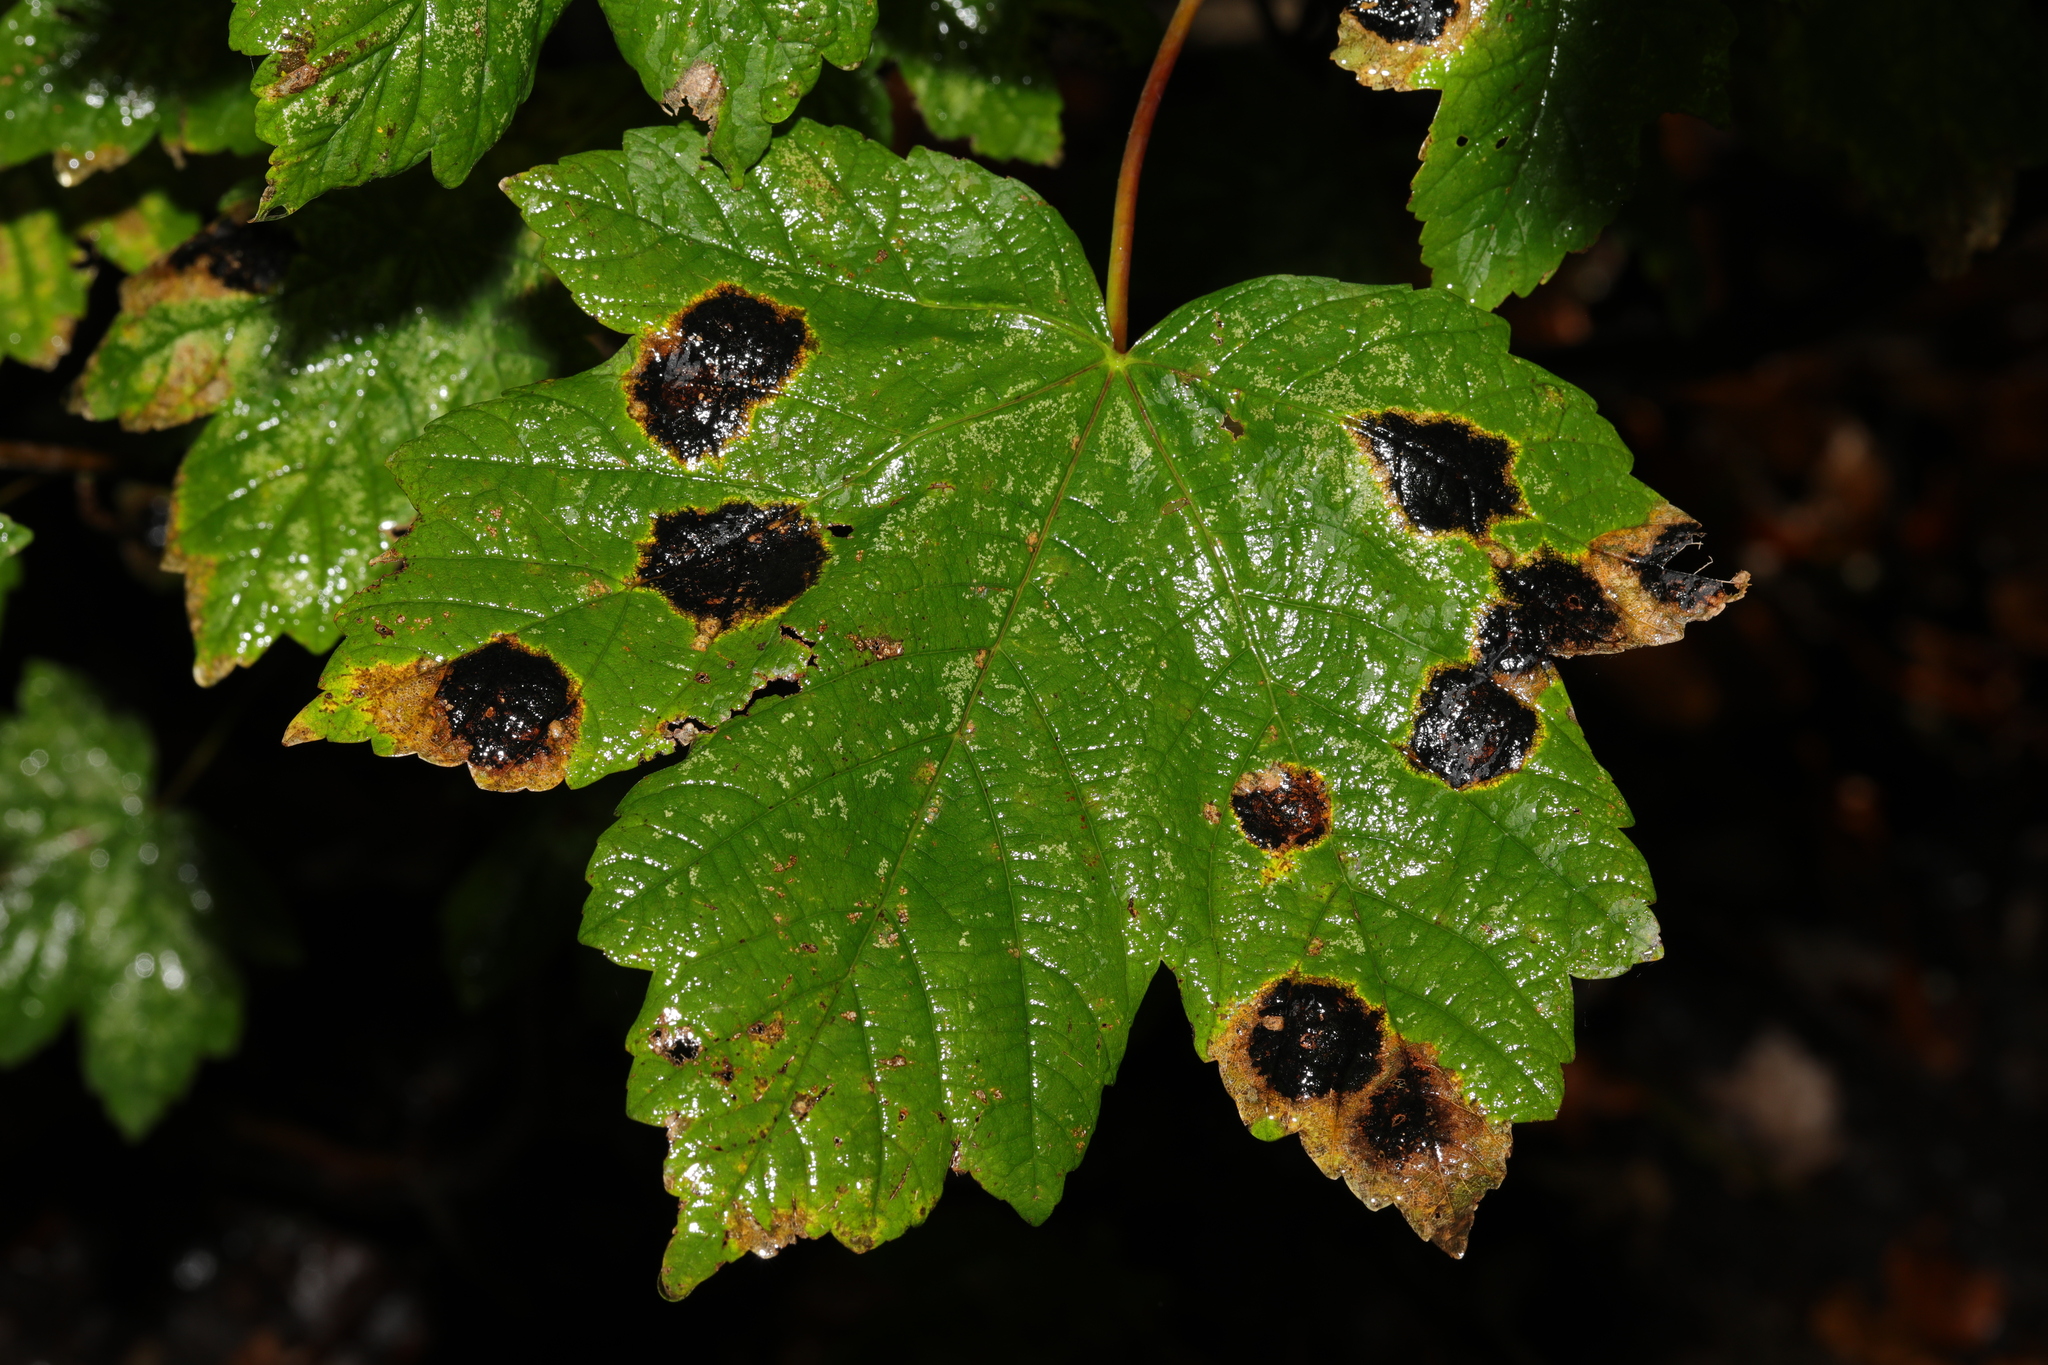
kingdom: Plantae
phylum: Tracheophyta
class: Magnoliopsida
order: Sapindales
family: Sapindaceae
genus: Acer
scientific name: Acer pseudoplatanus
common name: Sycamore
